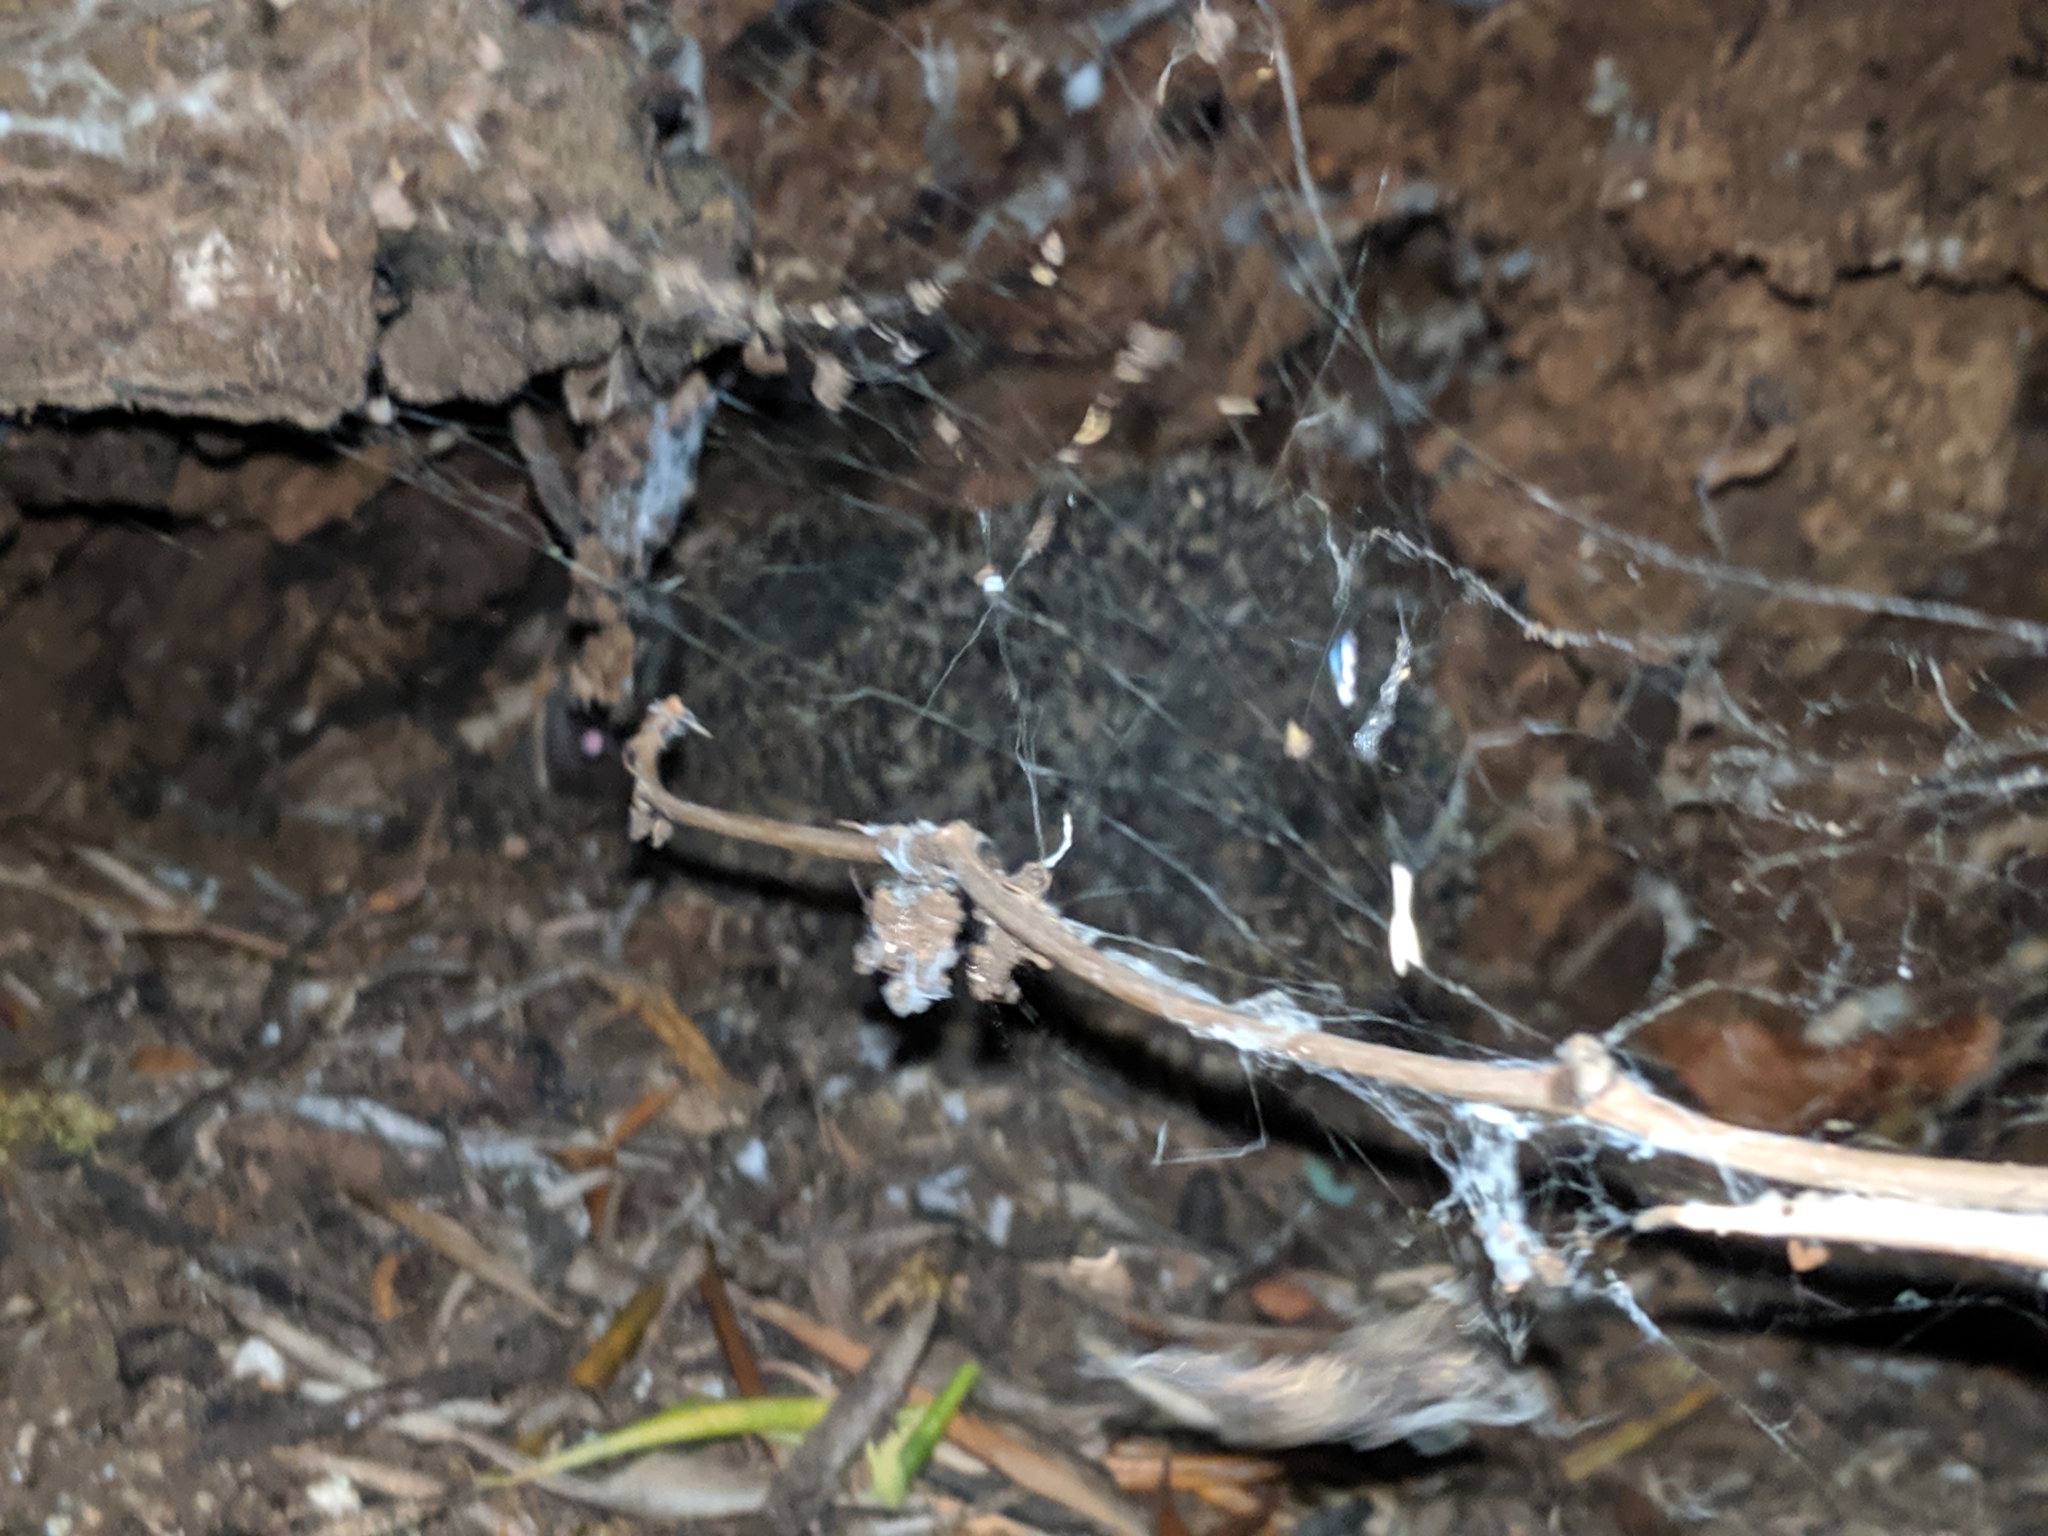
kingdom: Animalia
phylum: Chordata
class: Mammalia
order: Erinaceomorpha
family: Erinaceidae
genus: Erinaceus
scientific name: Erinaceus roumanicus
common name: Northern white-breasted hedgehog
